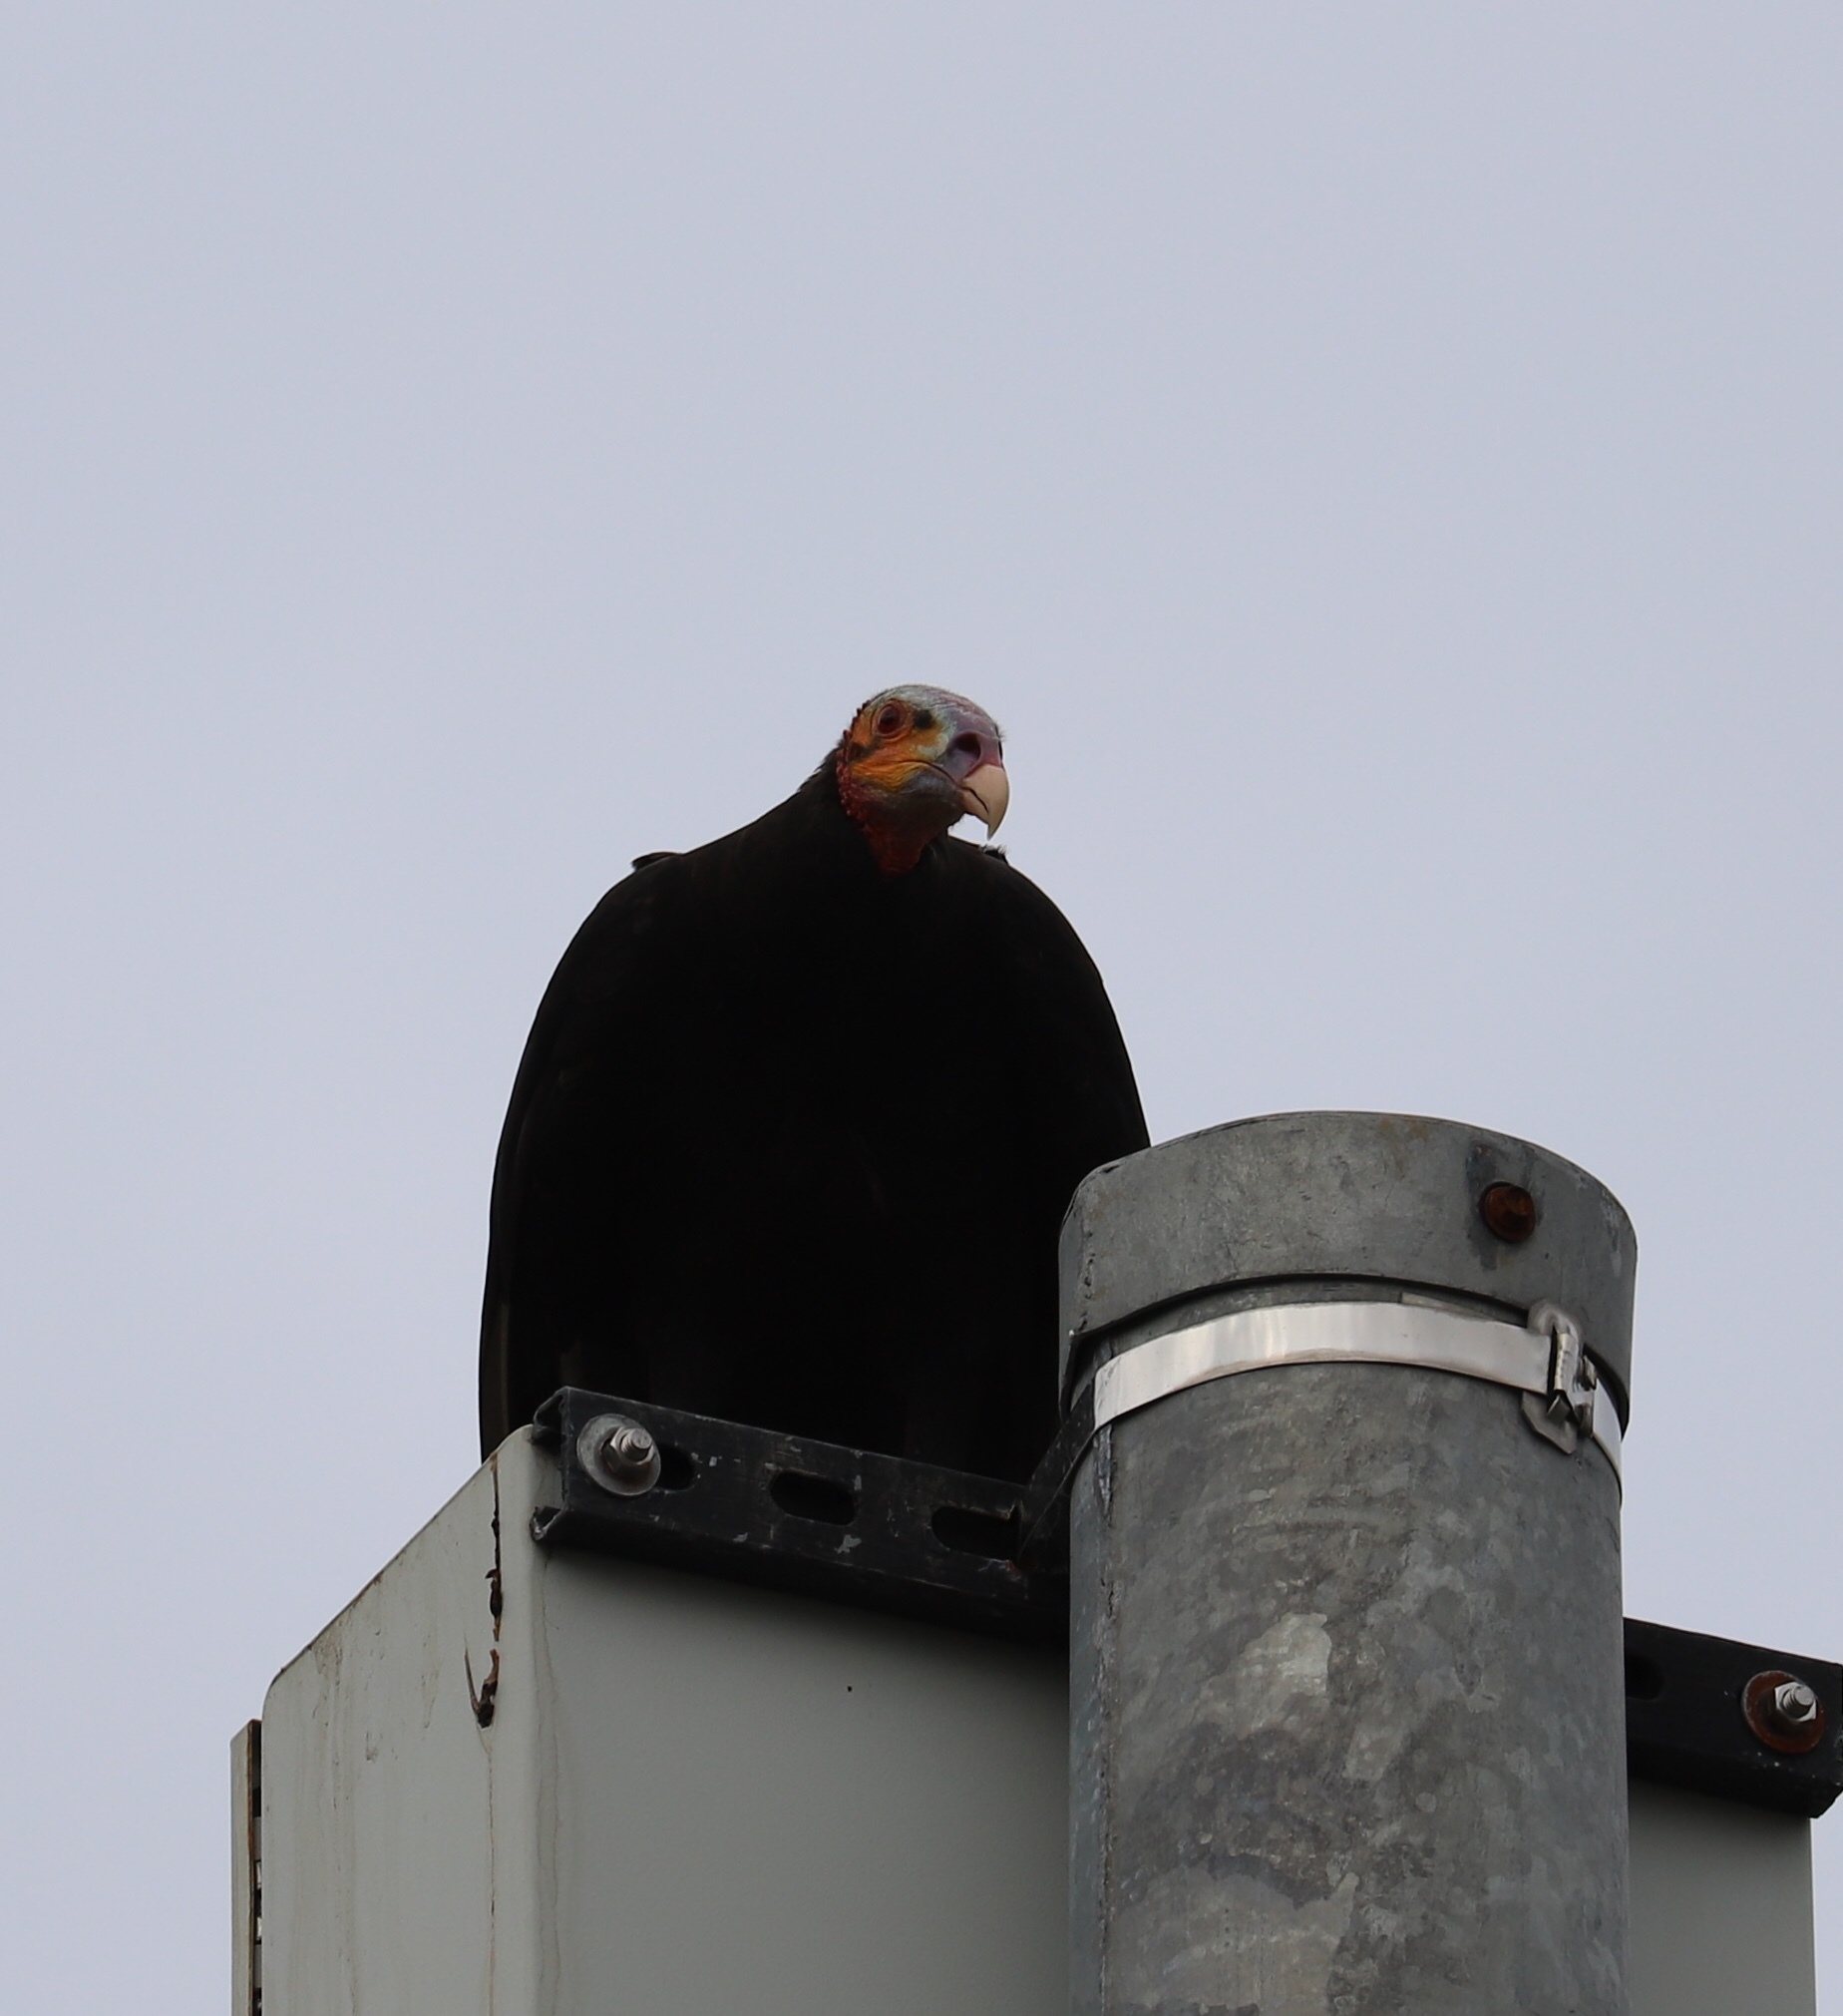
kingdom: Animalia
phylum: Chordata
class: Aves
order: Accipitriformes
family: Cathartidae
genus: Cathartes
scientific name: Cathartes burrovianus
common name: Lesser yellow-headed vulture
